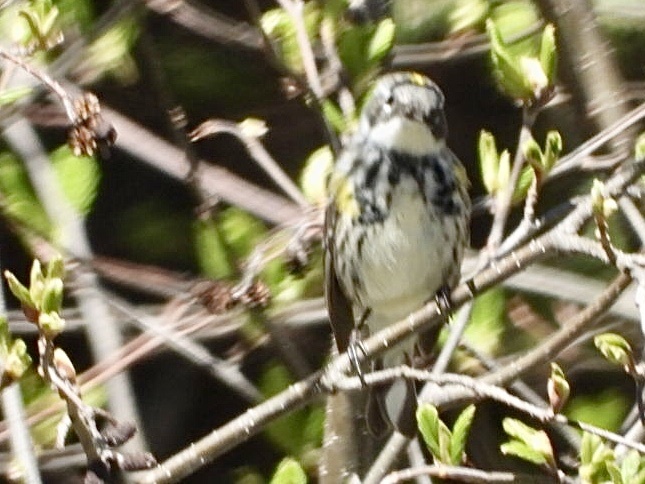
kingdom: Animalia
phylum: Chordata
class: Aves
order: Passeriformes
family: Parulidae
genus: Setophaga
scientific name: Setophaga coronata
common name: Myrtle warbler
